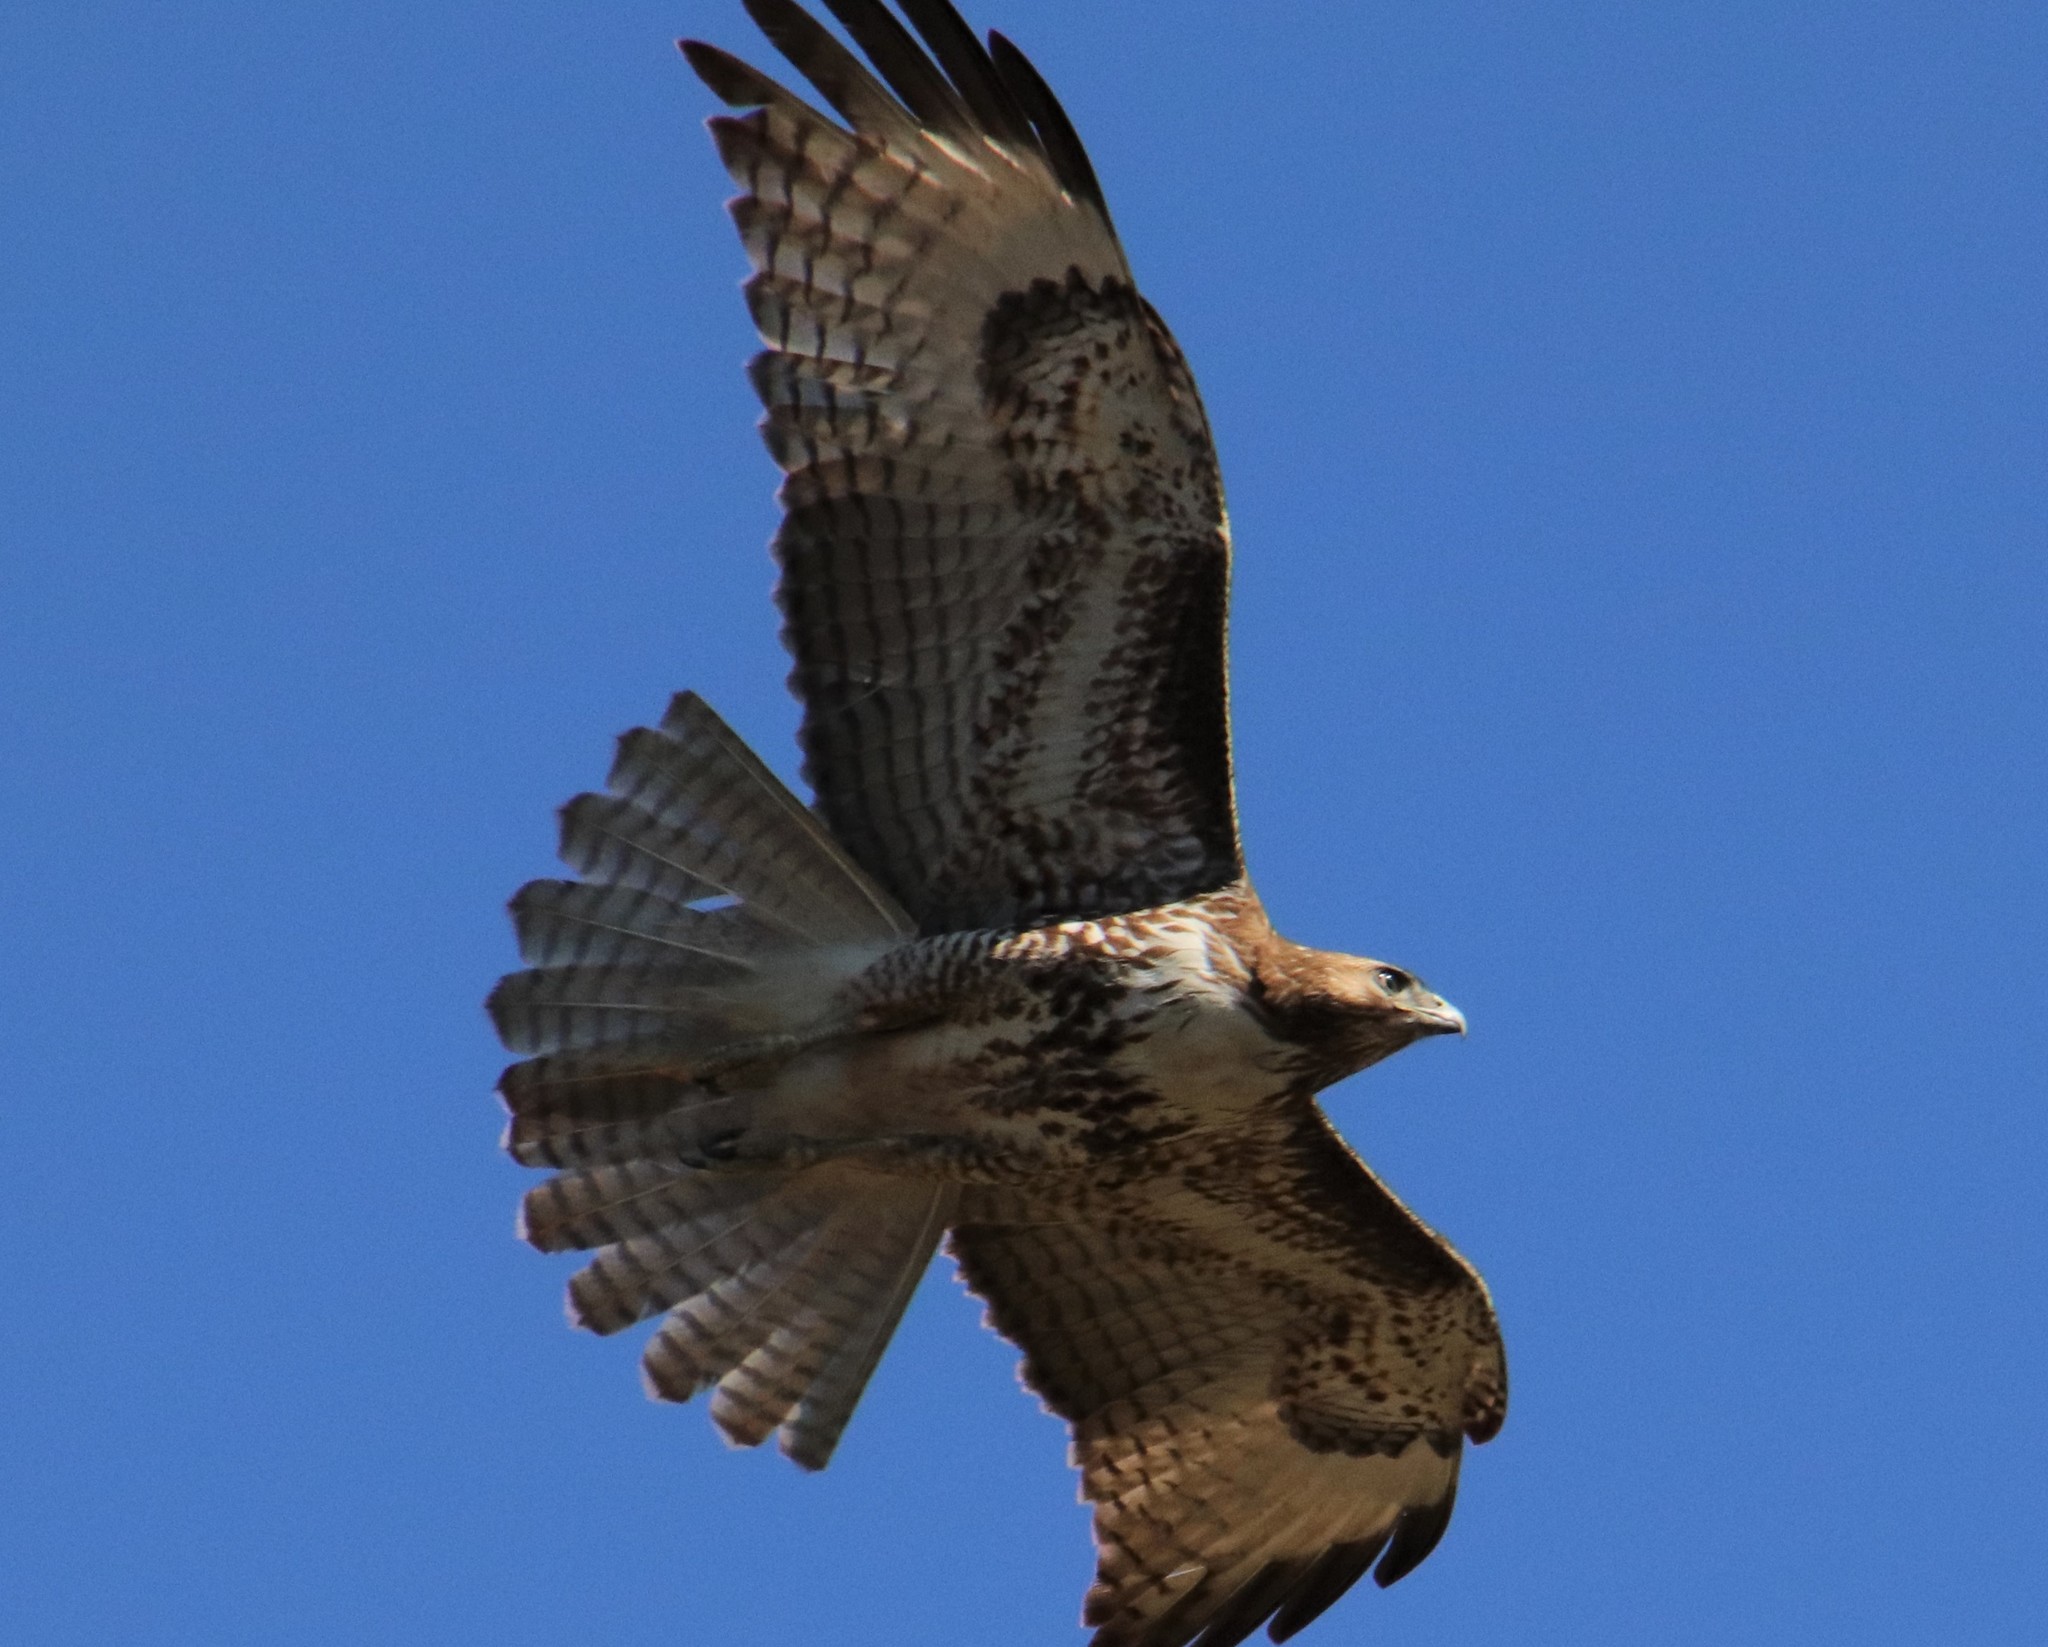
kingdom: Animalia
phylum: Chordata
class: Aves
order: Accipitriformes
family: Accipitridae
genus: Buteo
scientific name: Buteo jamaicensis
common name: Red-tailed hawk
